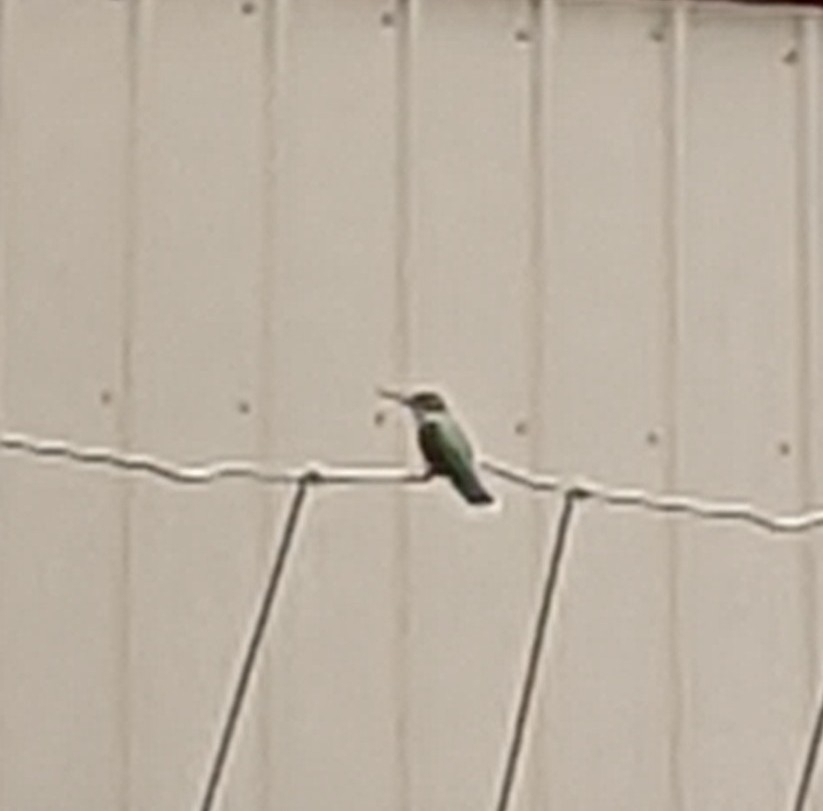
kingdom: Animalia
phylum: Chordata
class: Aves
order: Apodiformes
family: Trochilidae
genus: Archilochus
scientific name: Archilochus colubris
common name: Ruby-throated hummingbird
